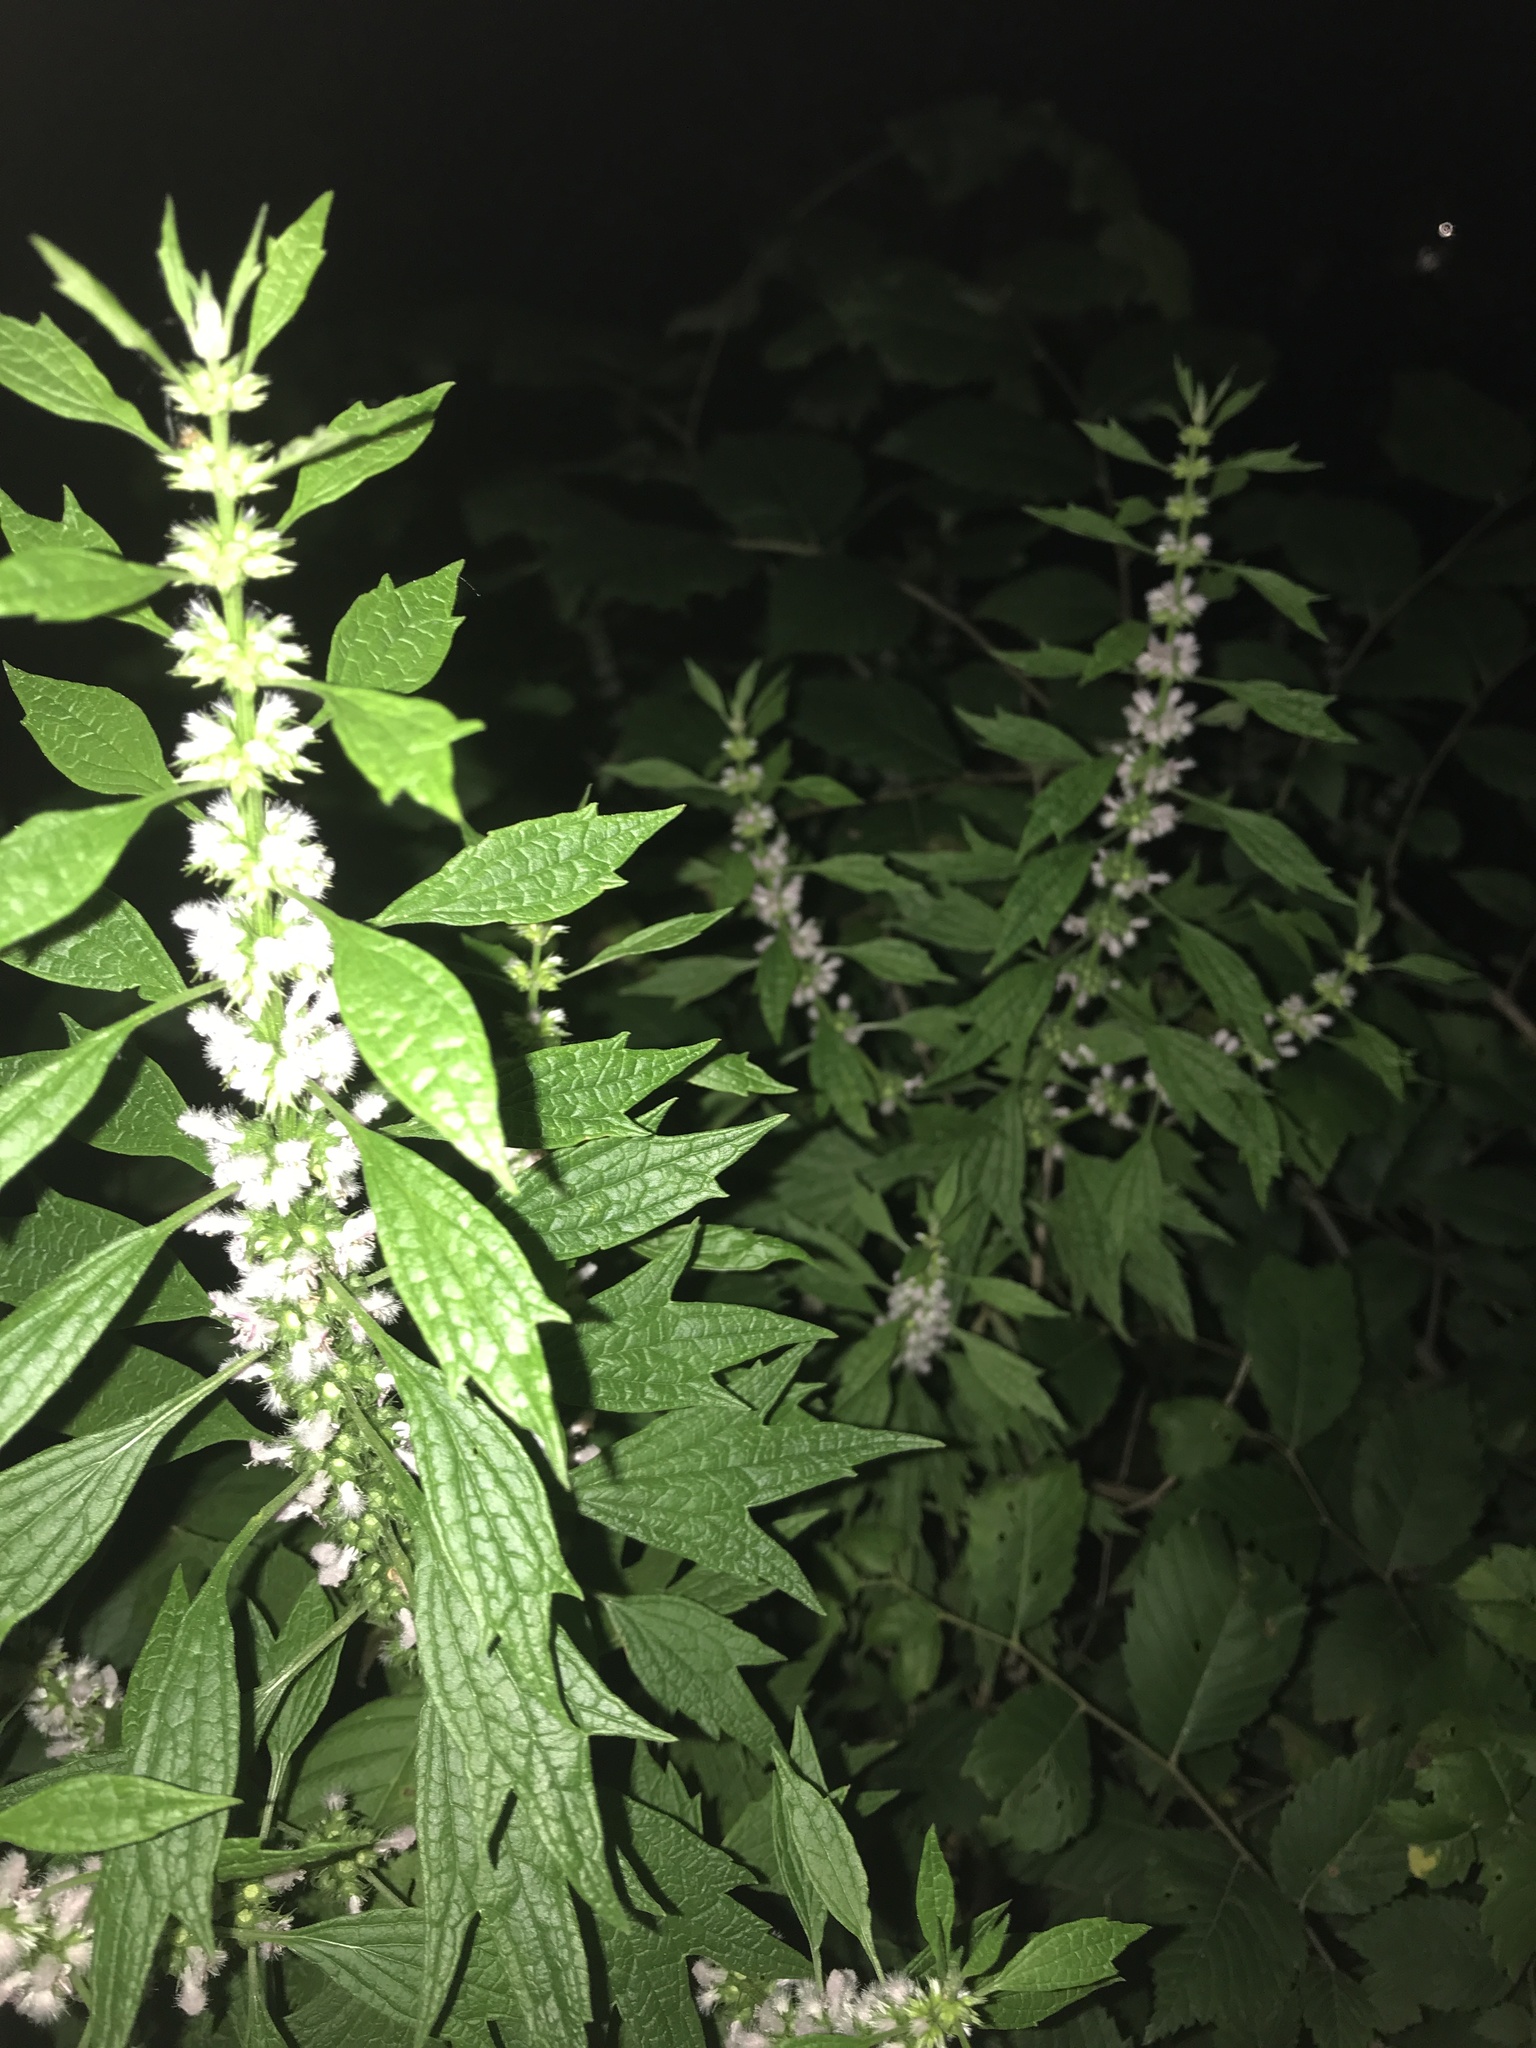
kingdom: Plantae
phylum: Tracheophyta
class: Magnoliopsida
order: Lamiales
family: Lamiaceae
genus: Leonurus
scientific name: Leonurus cardiaca
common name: Motherwort
